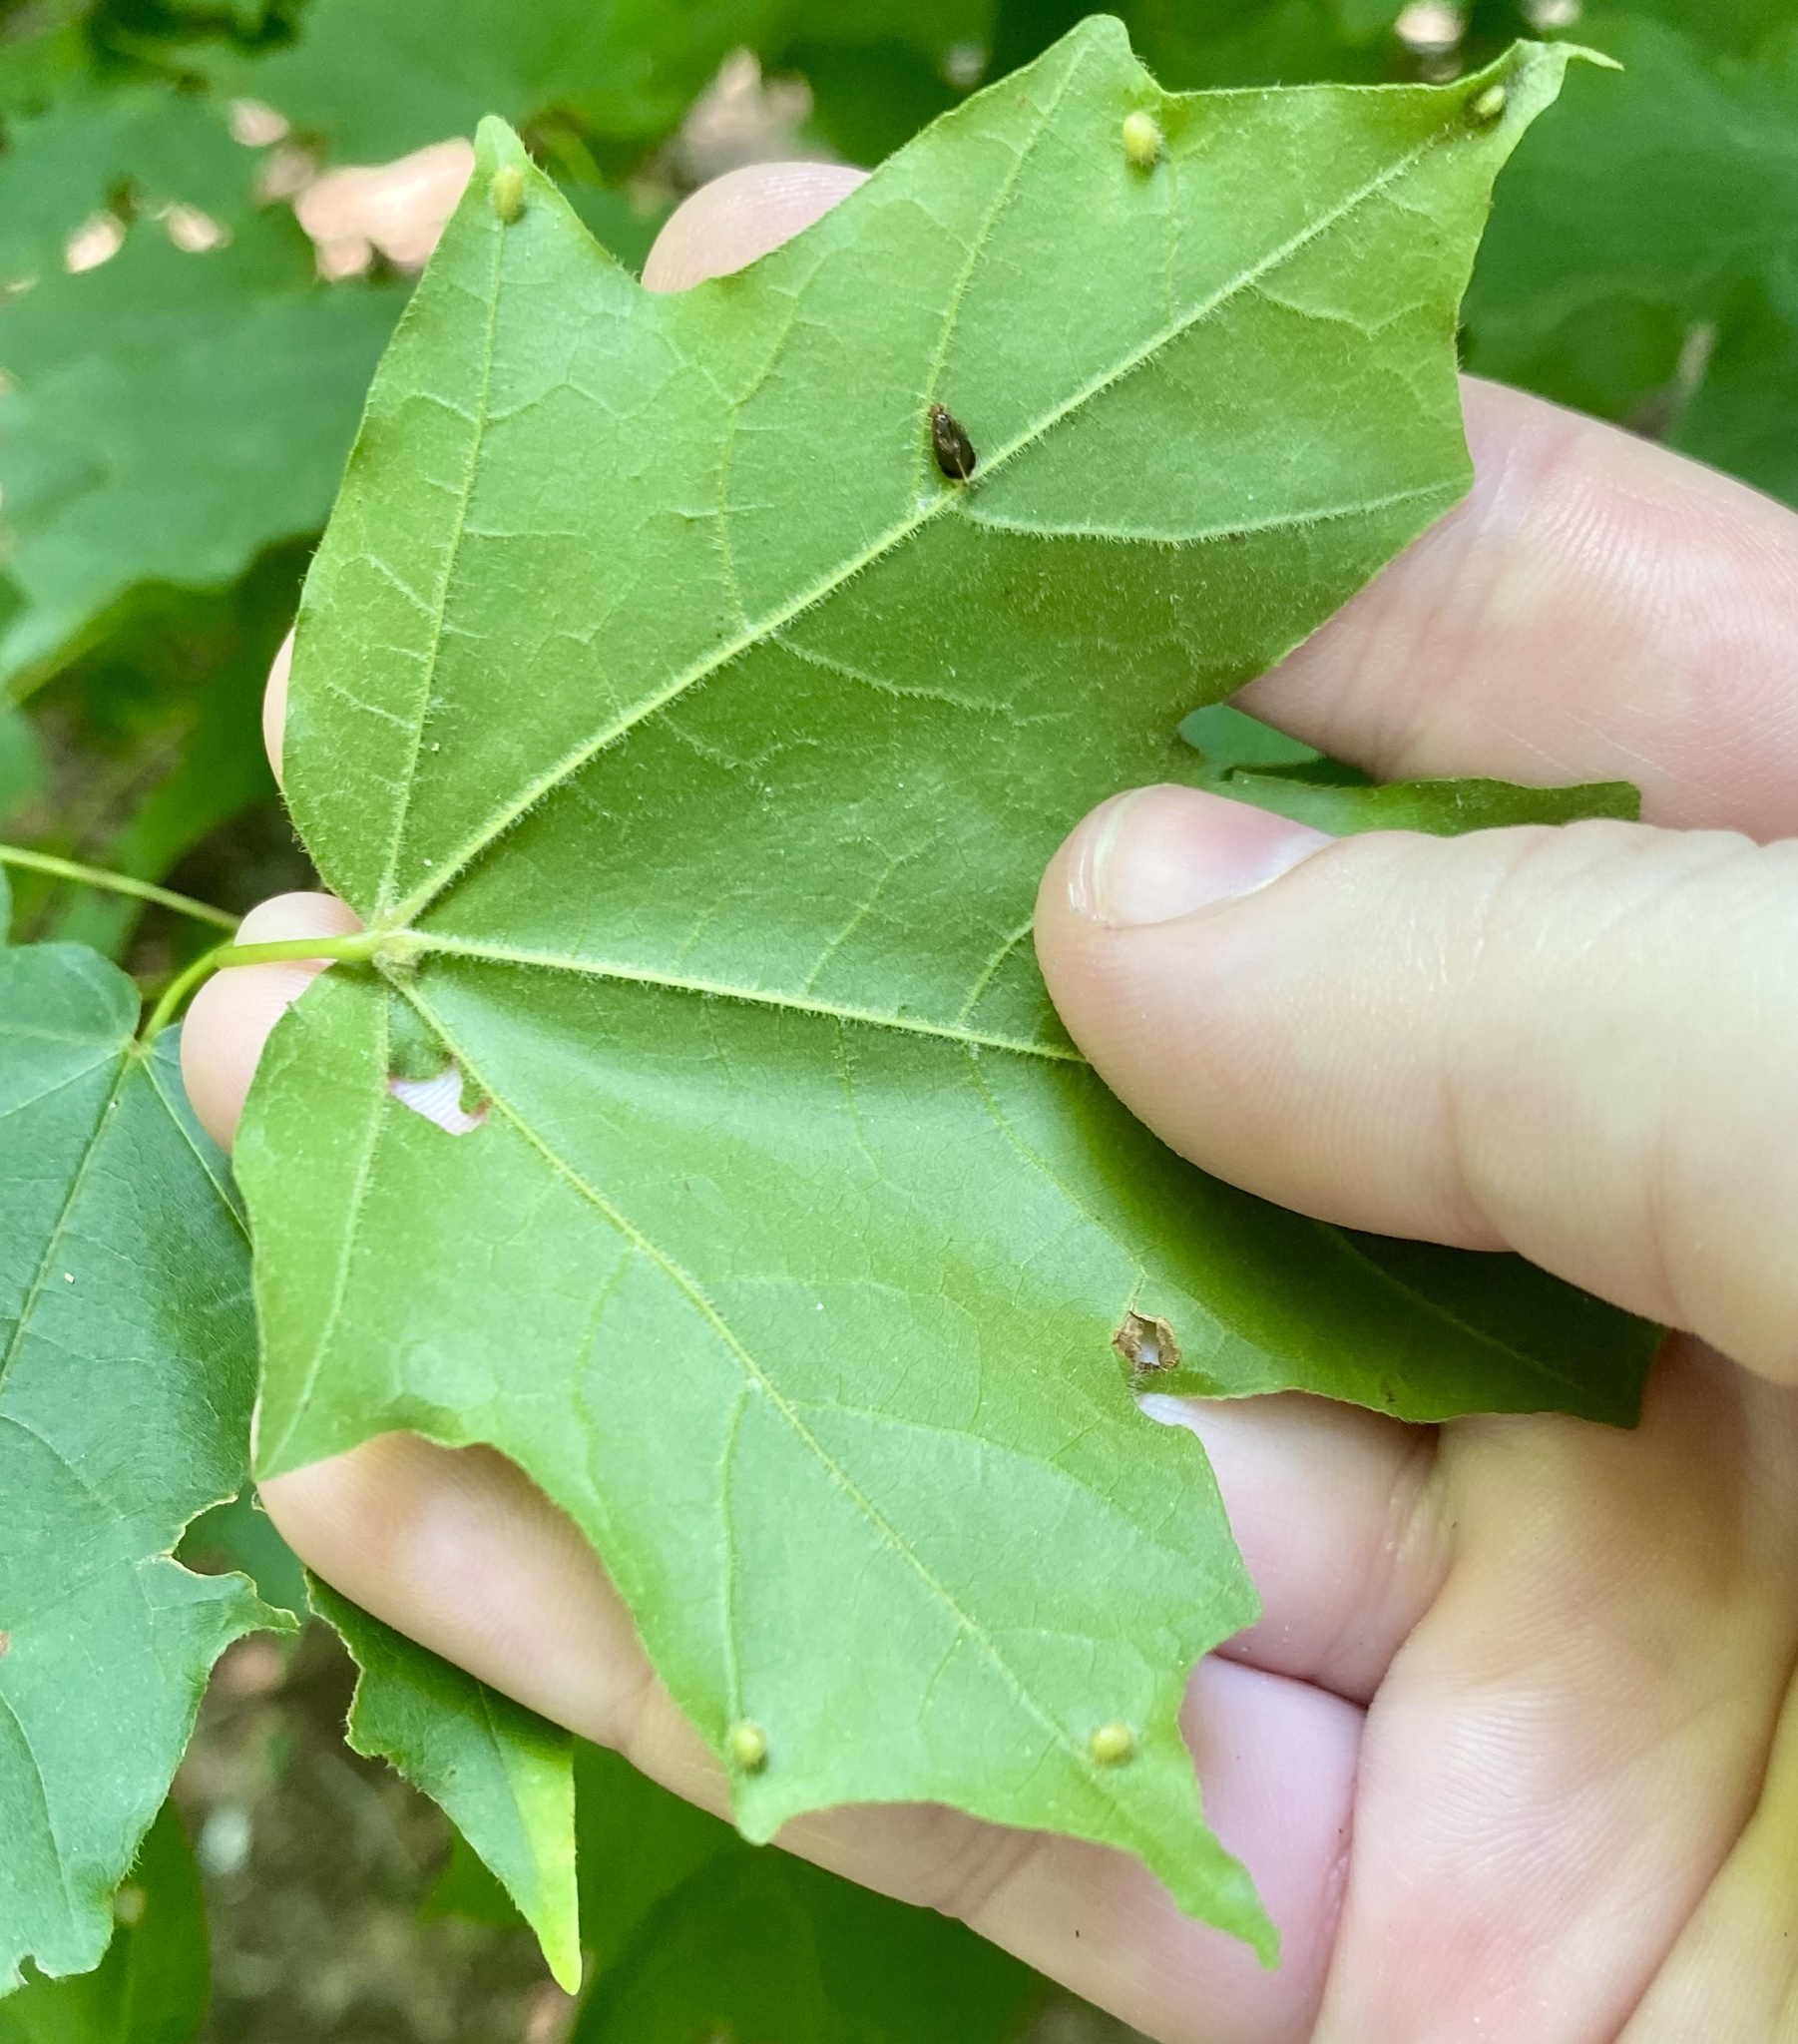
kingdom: Animalia
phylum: Arthropoda
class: Insecta
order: Diptera
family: Cecidomyiidae
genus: Dasineura
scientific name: Dasineura communis
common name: Gouty vein midge
